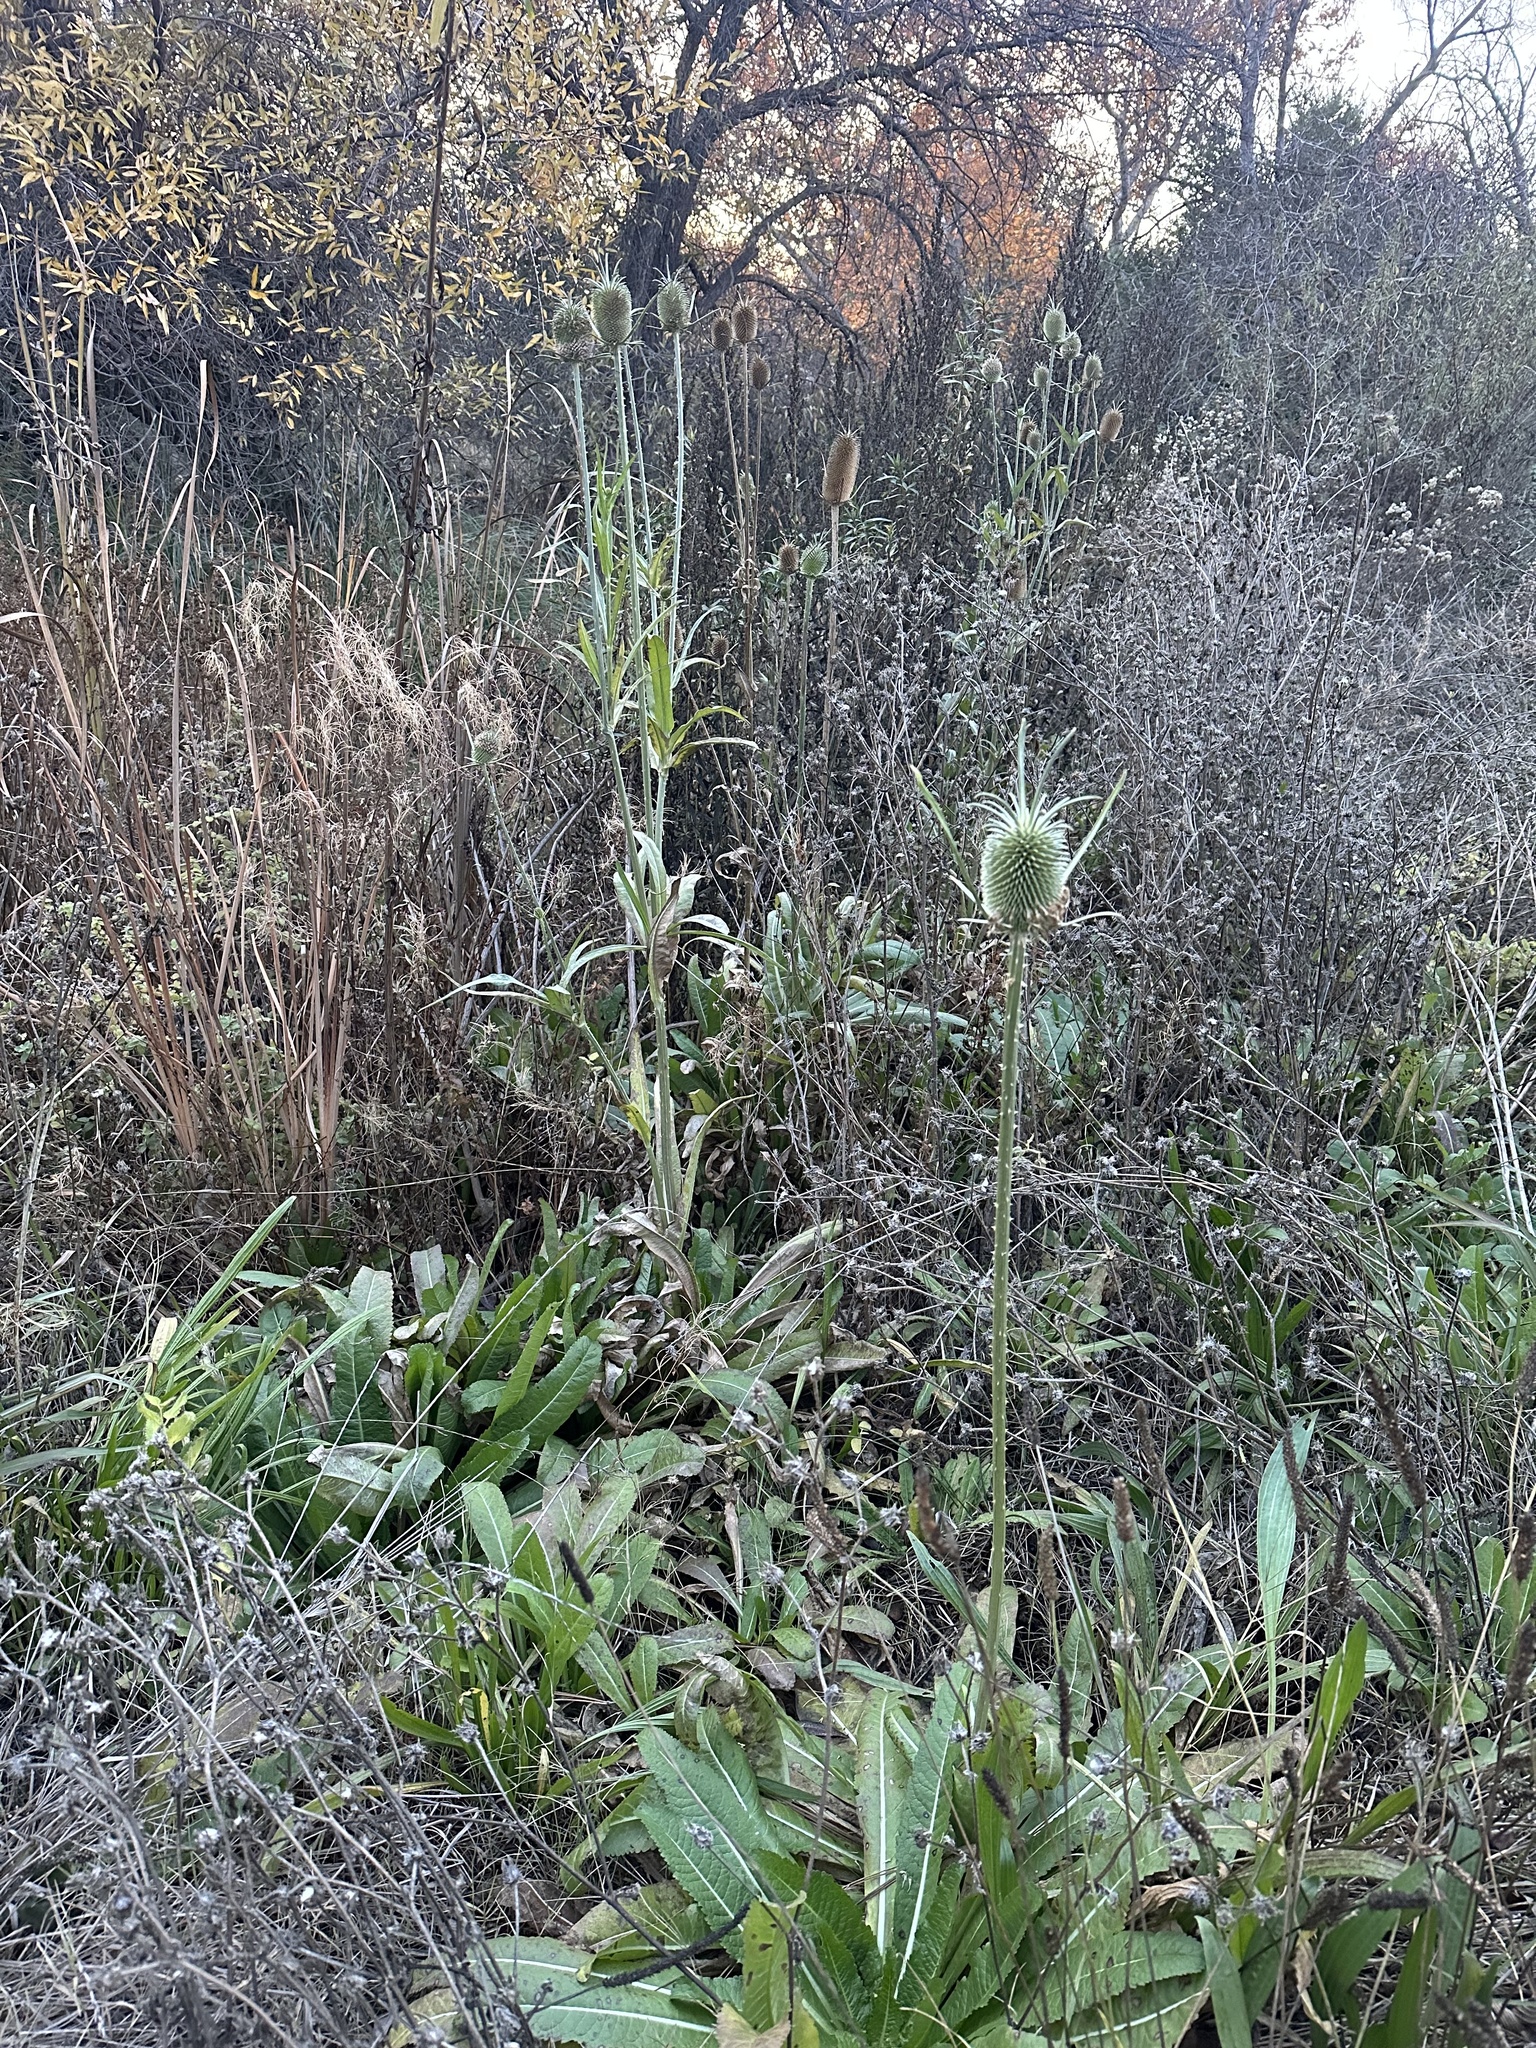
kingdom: Plantae
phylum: Tracheophyta
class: Magnoliopsida
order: Dipsacales
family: Caprifoliaceae
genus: Dipsacus
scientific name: Dipsacus sativus
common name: Fuller's teasel
